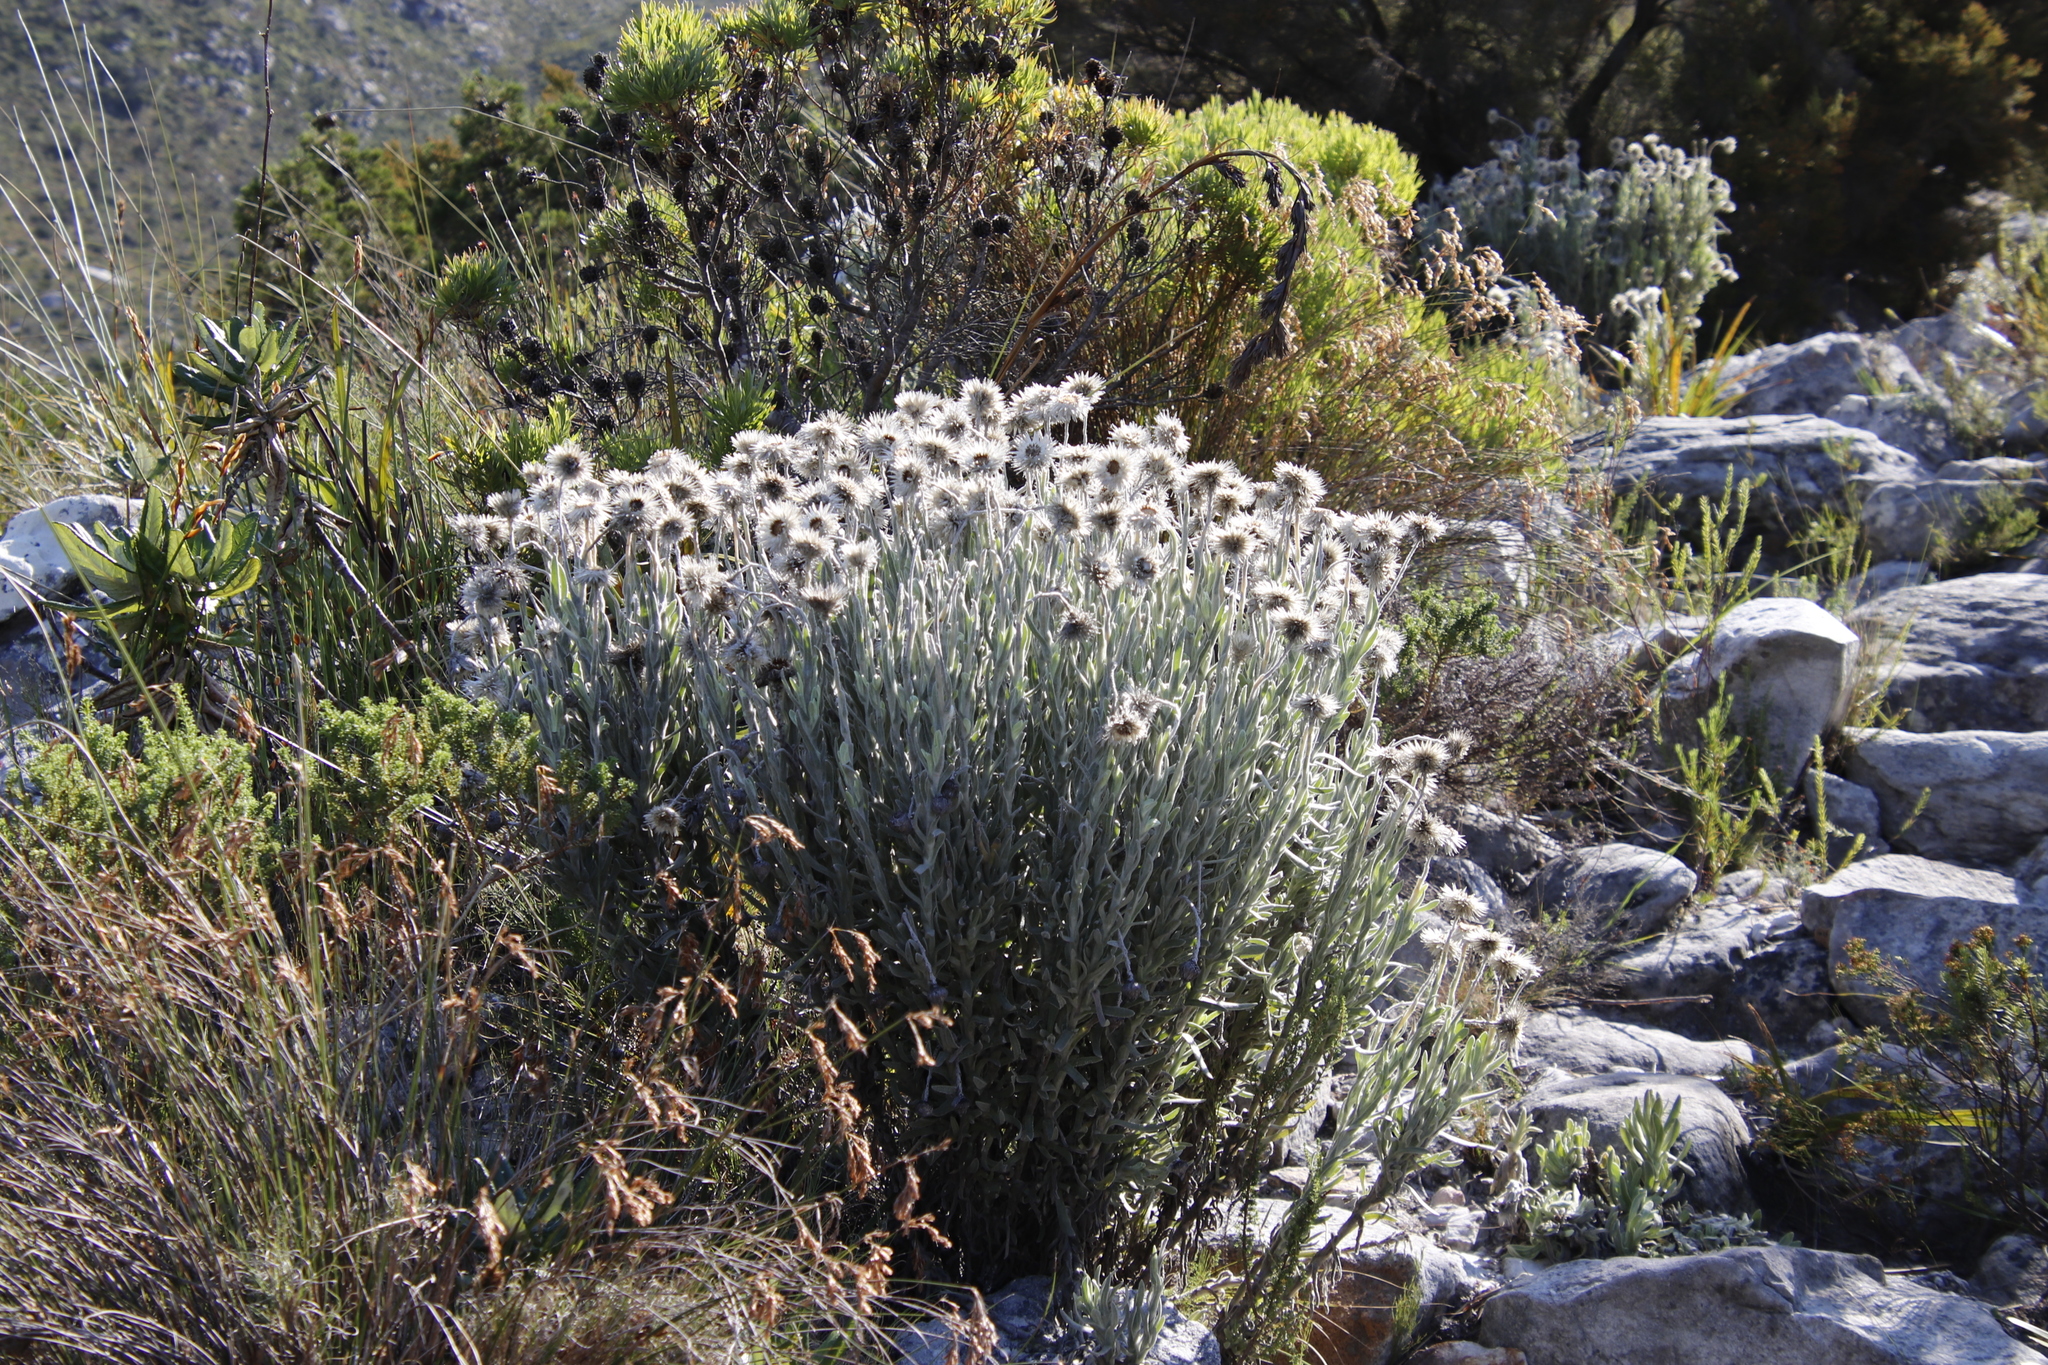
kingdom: Plantae
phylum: Tracheophyta
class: Magnoliopsida
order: Asterales
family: Asteraceae
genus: Syncarpha
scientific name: Syncarpha vestita
